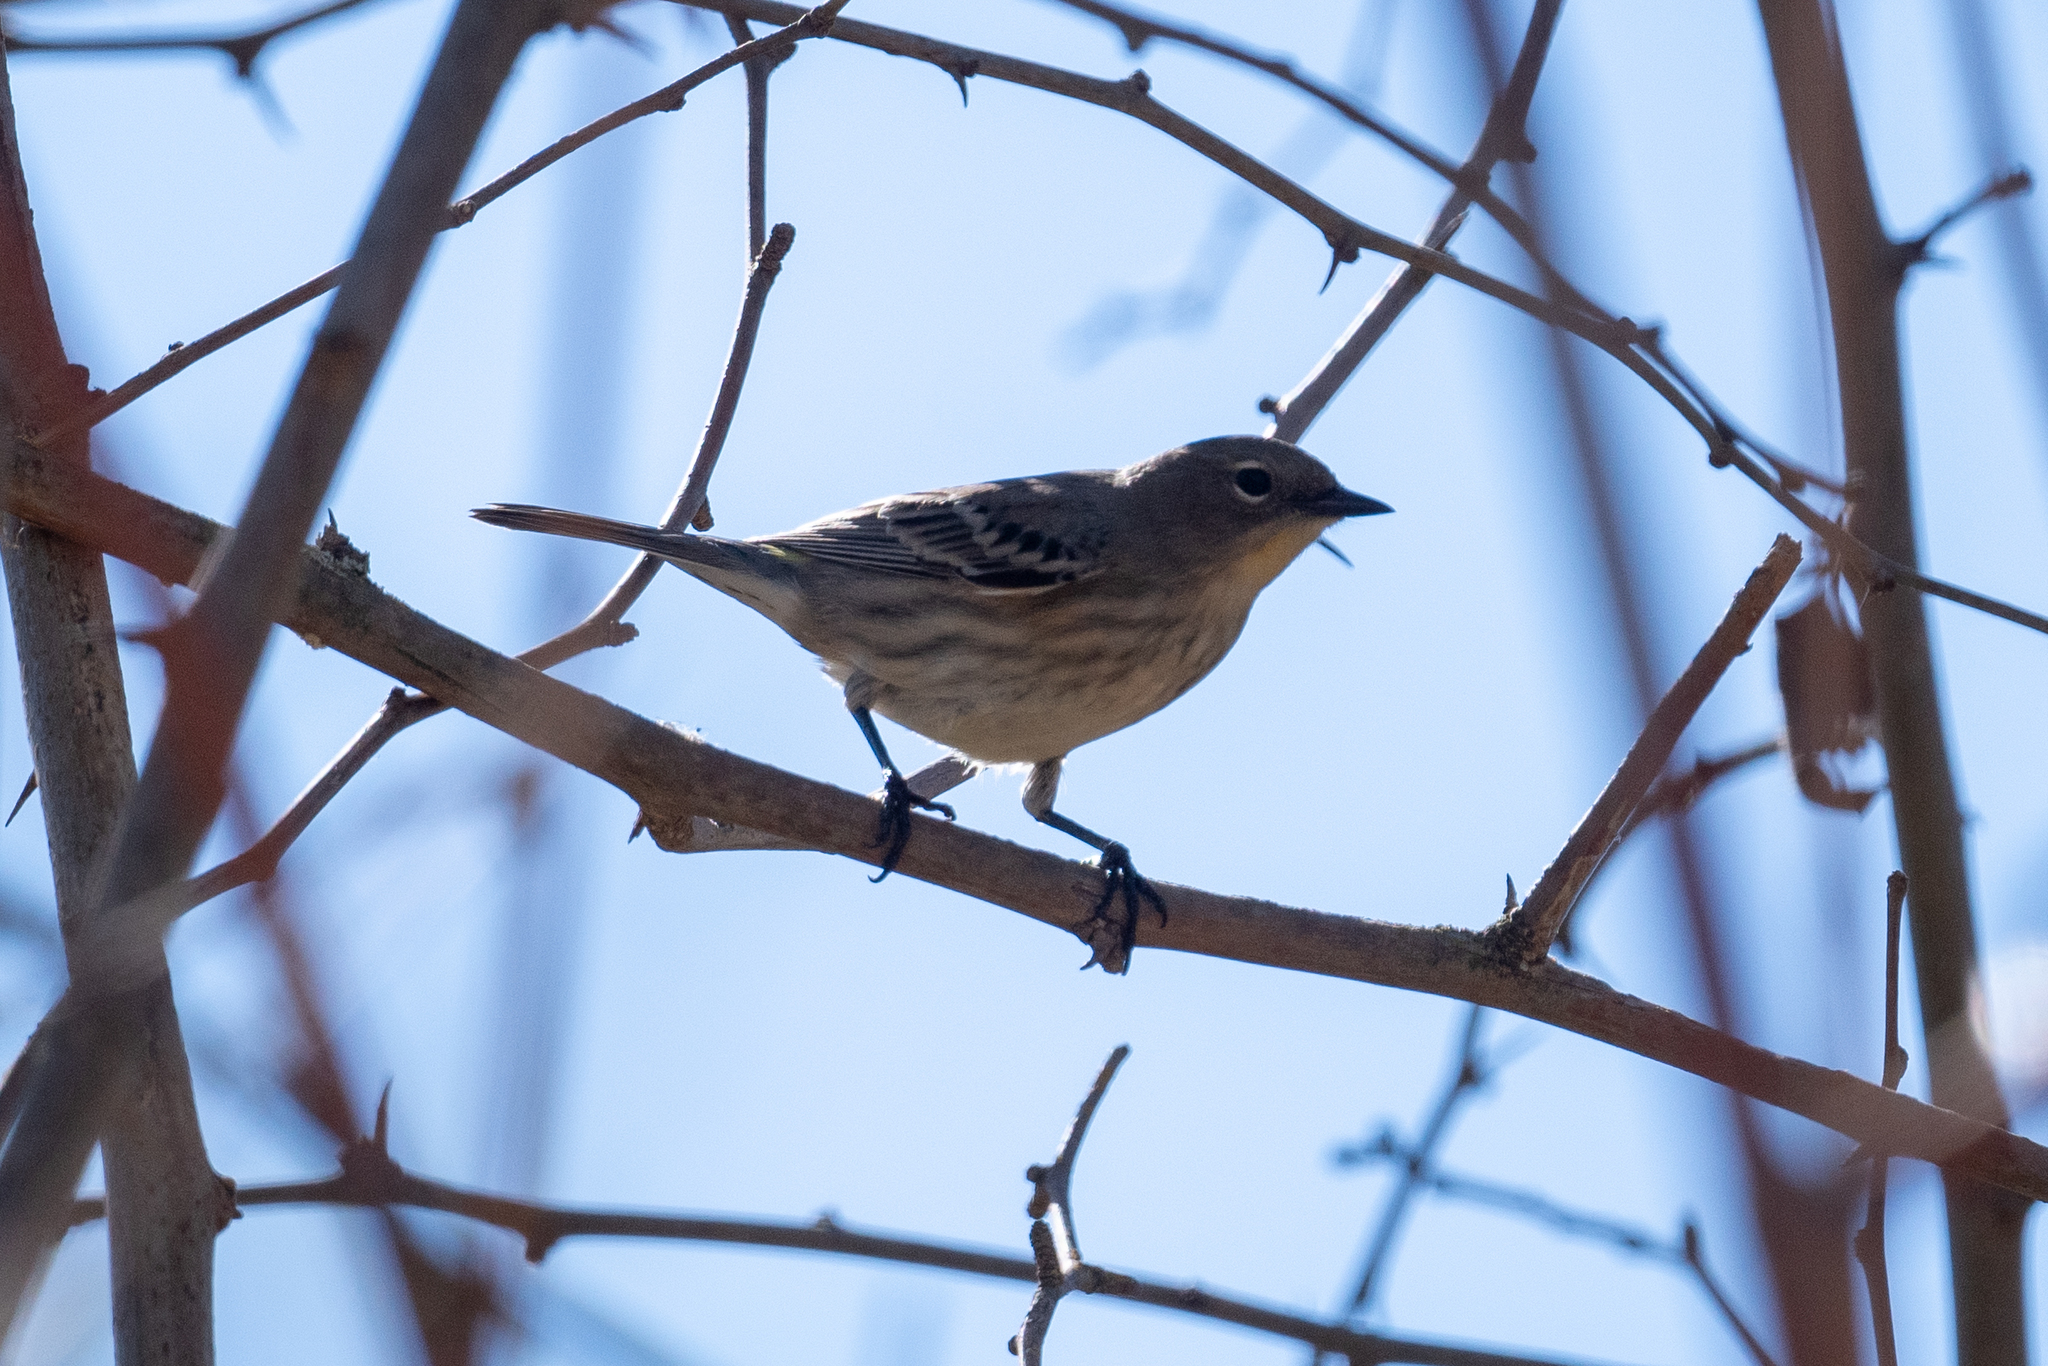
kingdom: Animalia
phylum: Chordata
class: Aves
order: Passeriformes
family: Parulidae
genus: Setophaga
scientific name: Setophaga coronata
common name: Myrtle warbler
